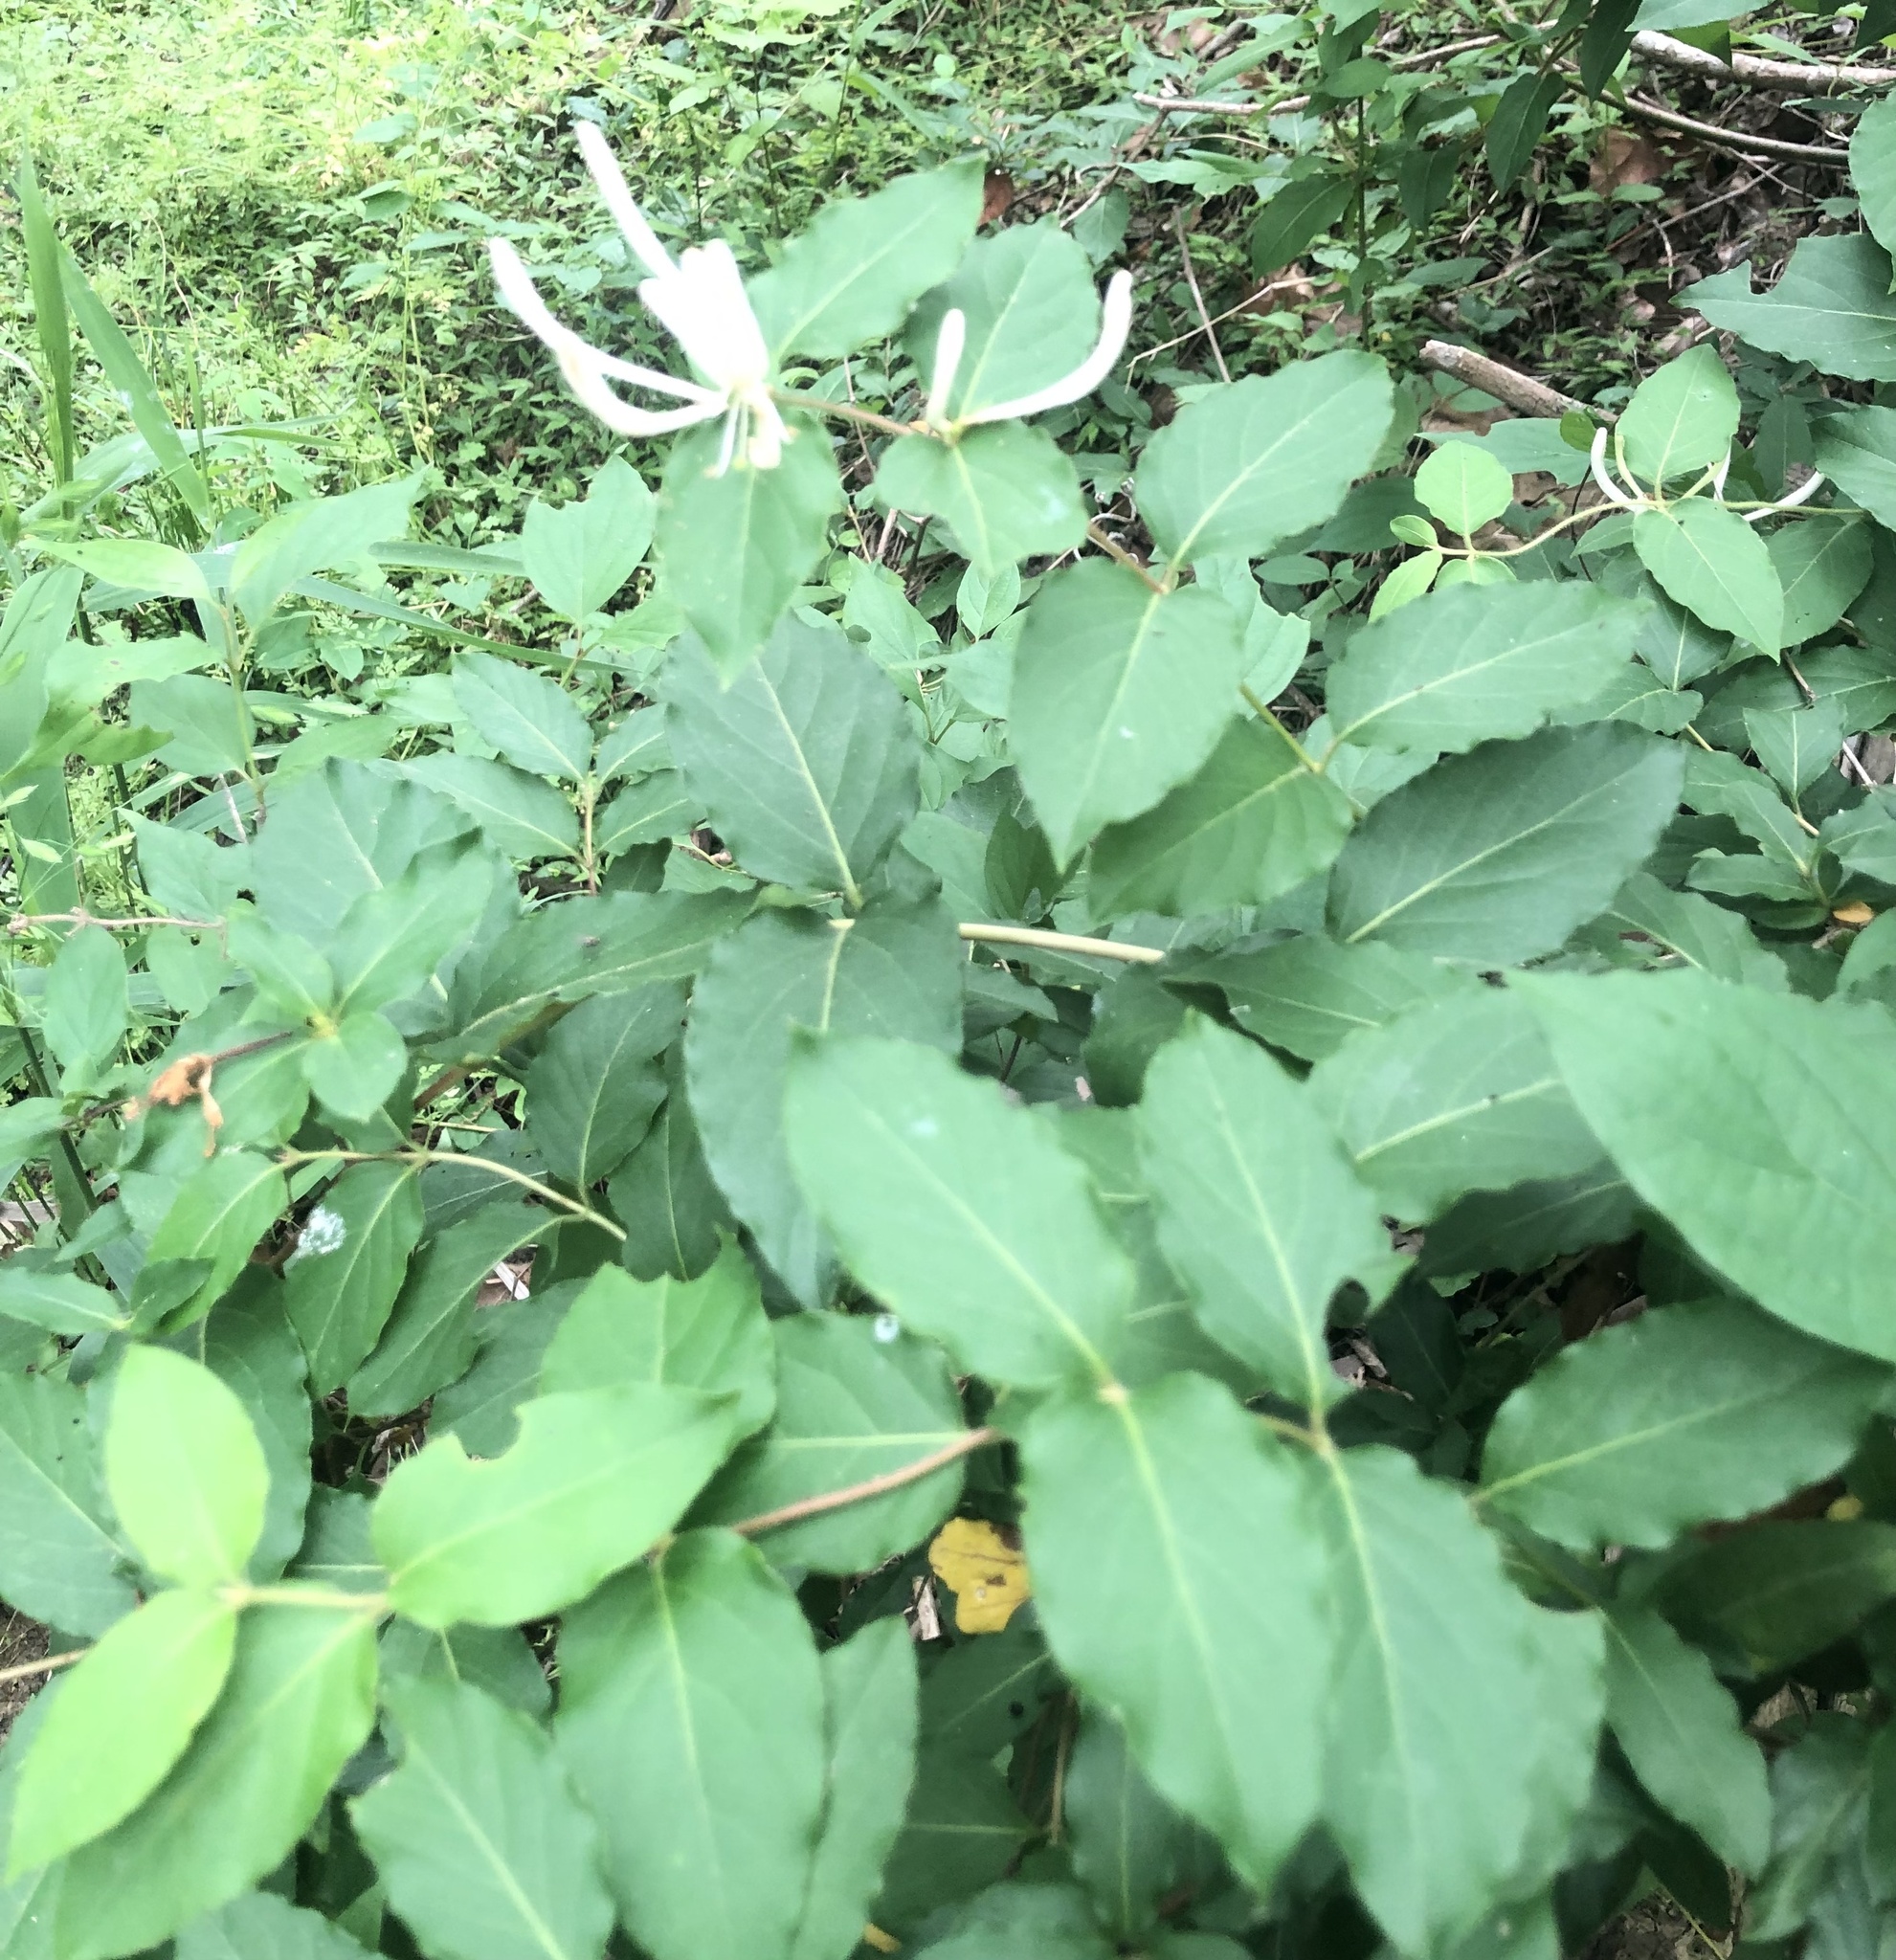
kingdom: Plantae
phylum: Tracheophyta
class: Magnoliopsida
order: Dipsacales
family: Caprifoliaceae
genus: Lonicera
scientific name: Lonicera japonica
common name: Japanese honeysuckle
